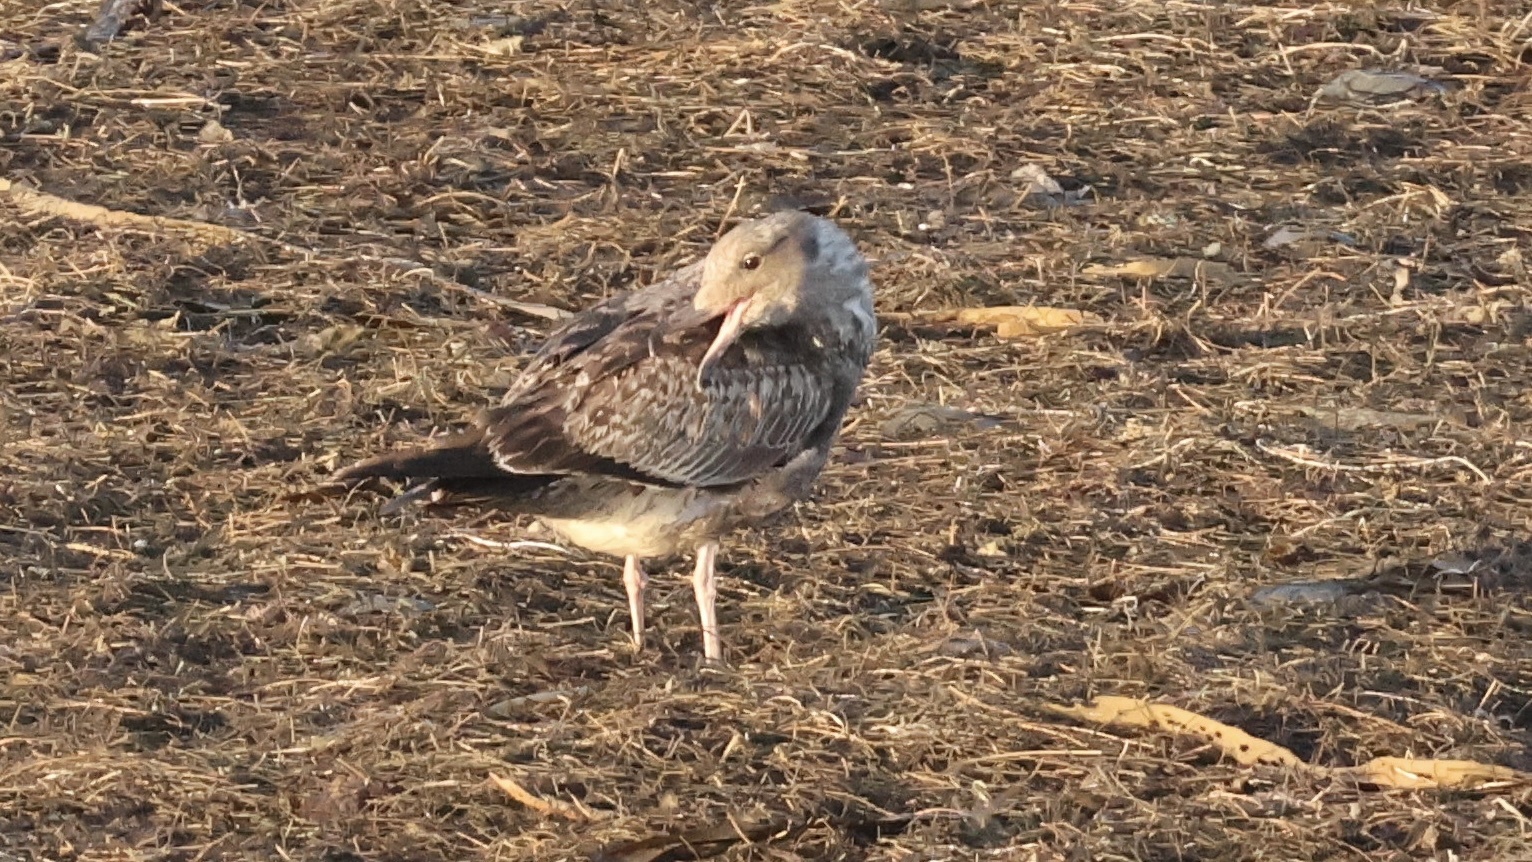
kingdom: Animalia
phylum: Chordata
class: Aves
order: Charadriiformes
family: Laridae
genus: Larus
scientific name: Larus occidentalis
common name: Western gull
